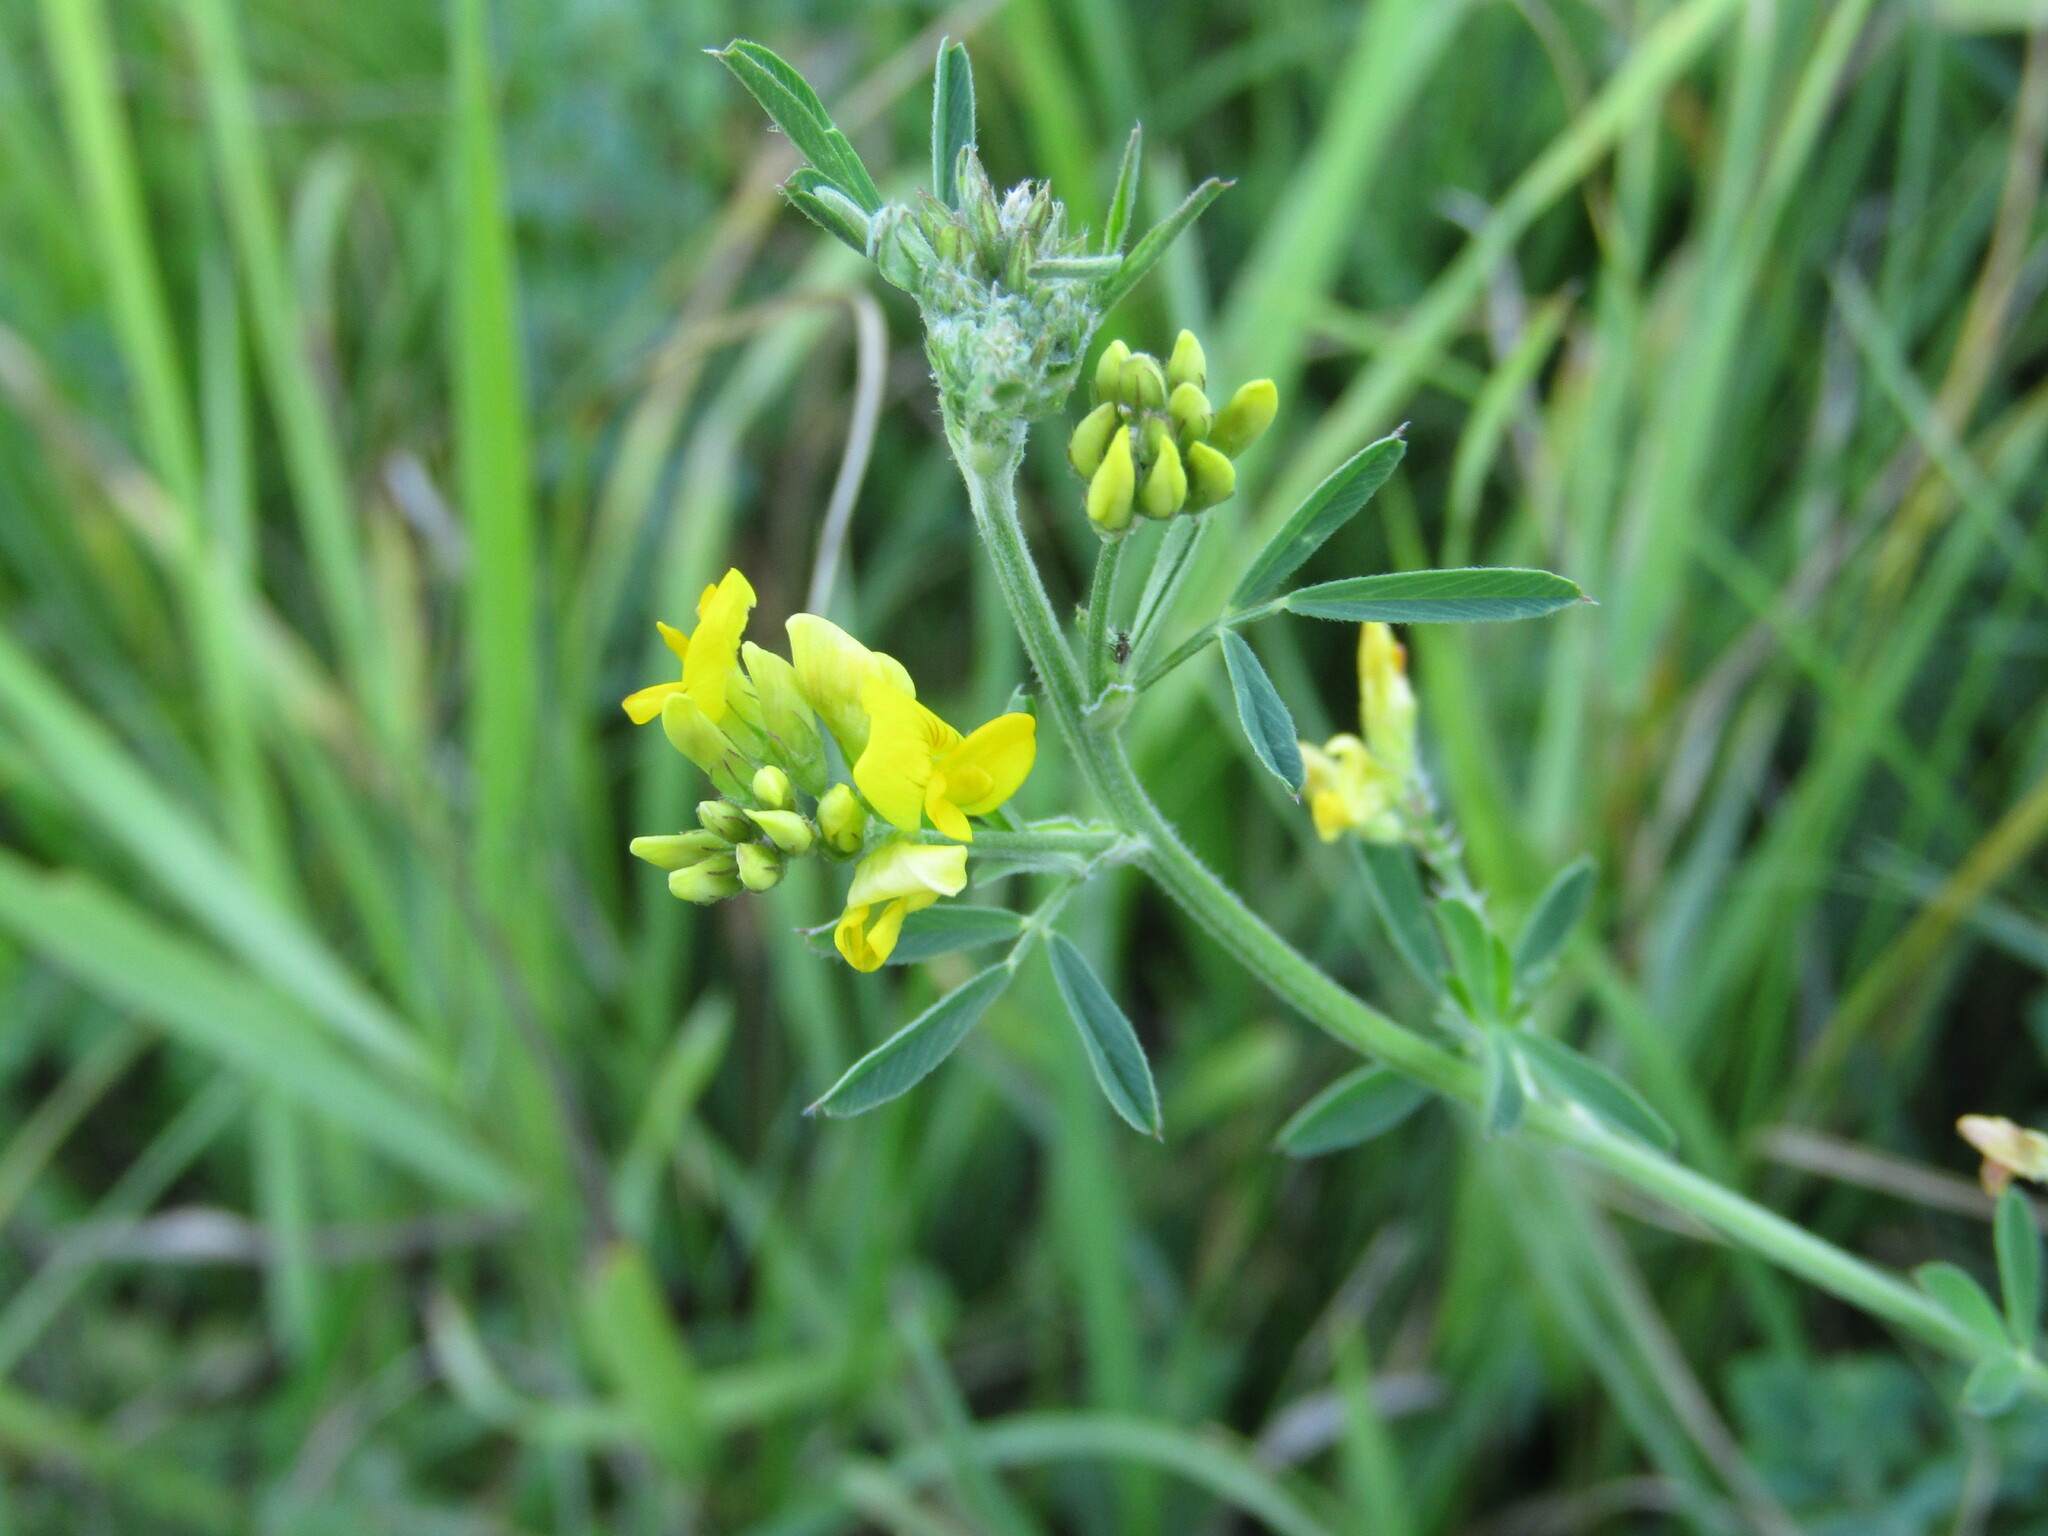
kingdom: Plantae
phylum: Tracheophyta
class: Magnoliopsida
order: Fabales
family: Fabaceae
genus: Medicago
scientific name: Medicago falcata
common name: Sickle medick
